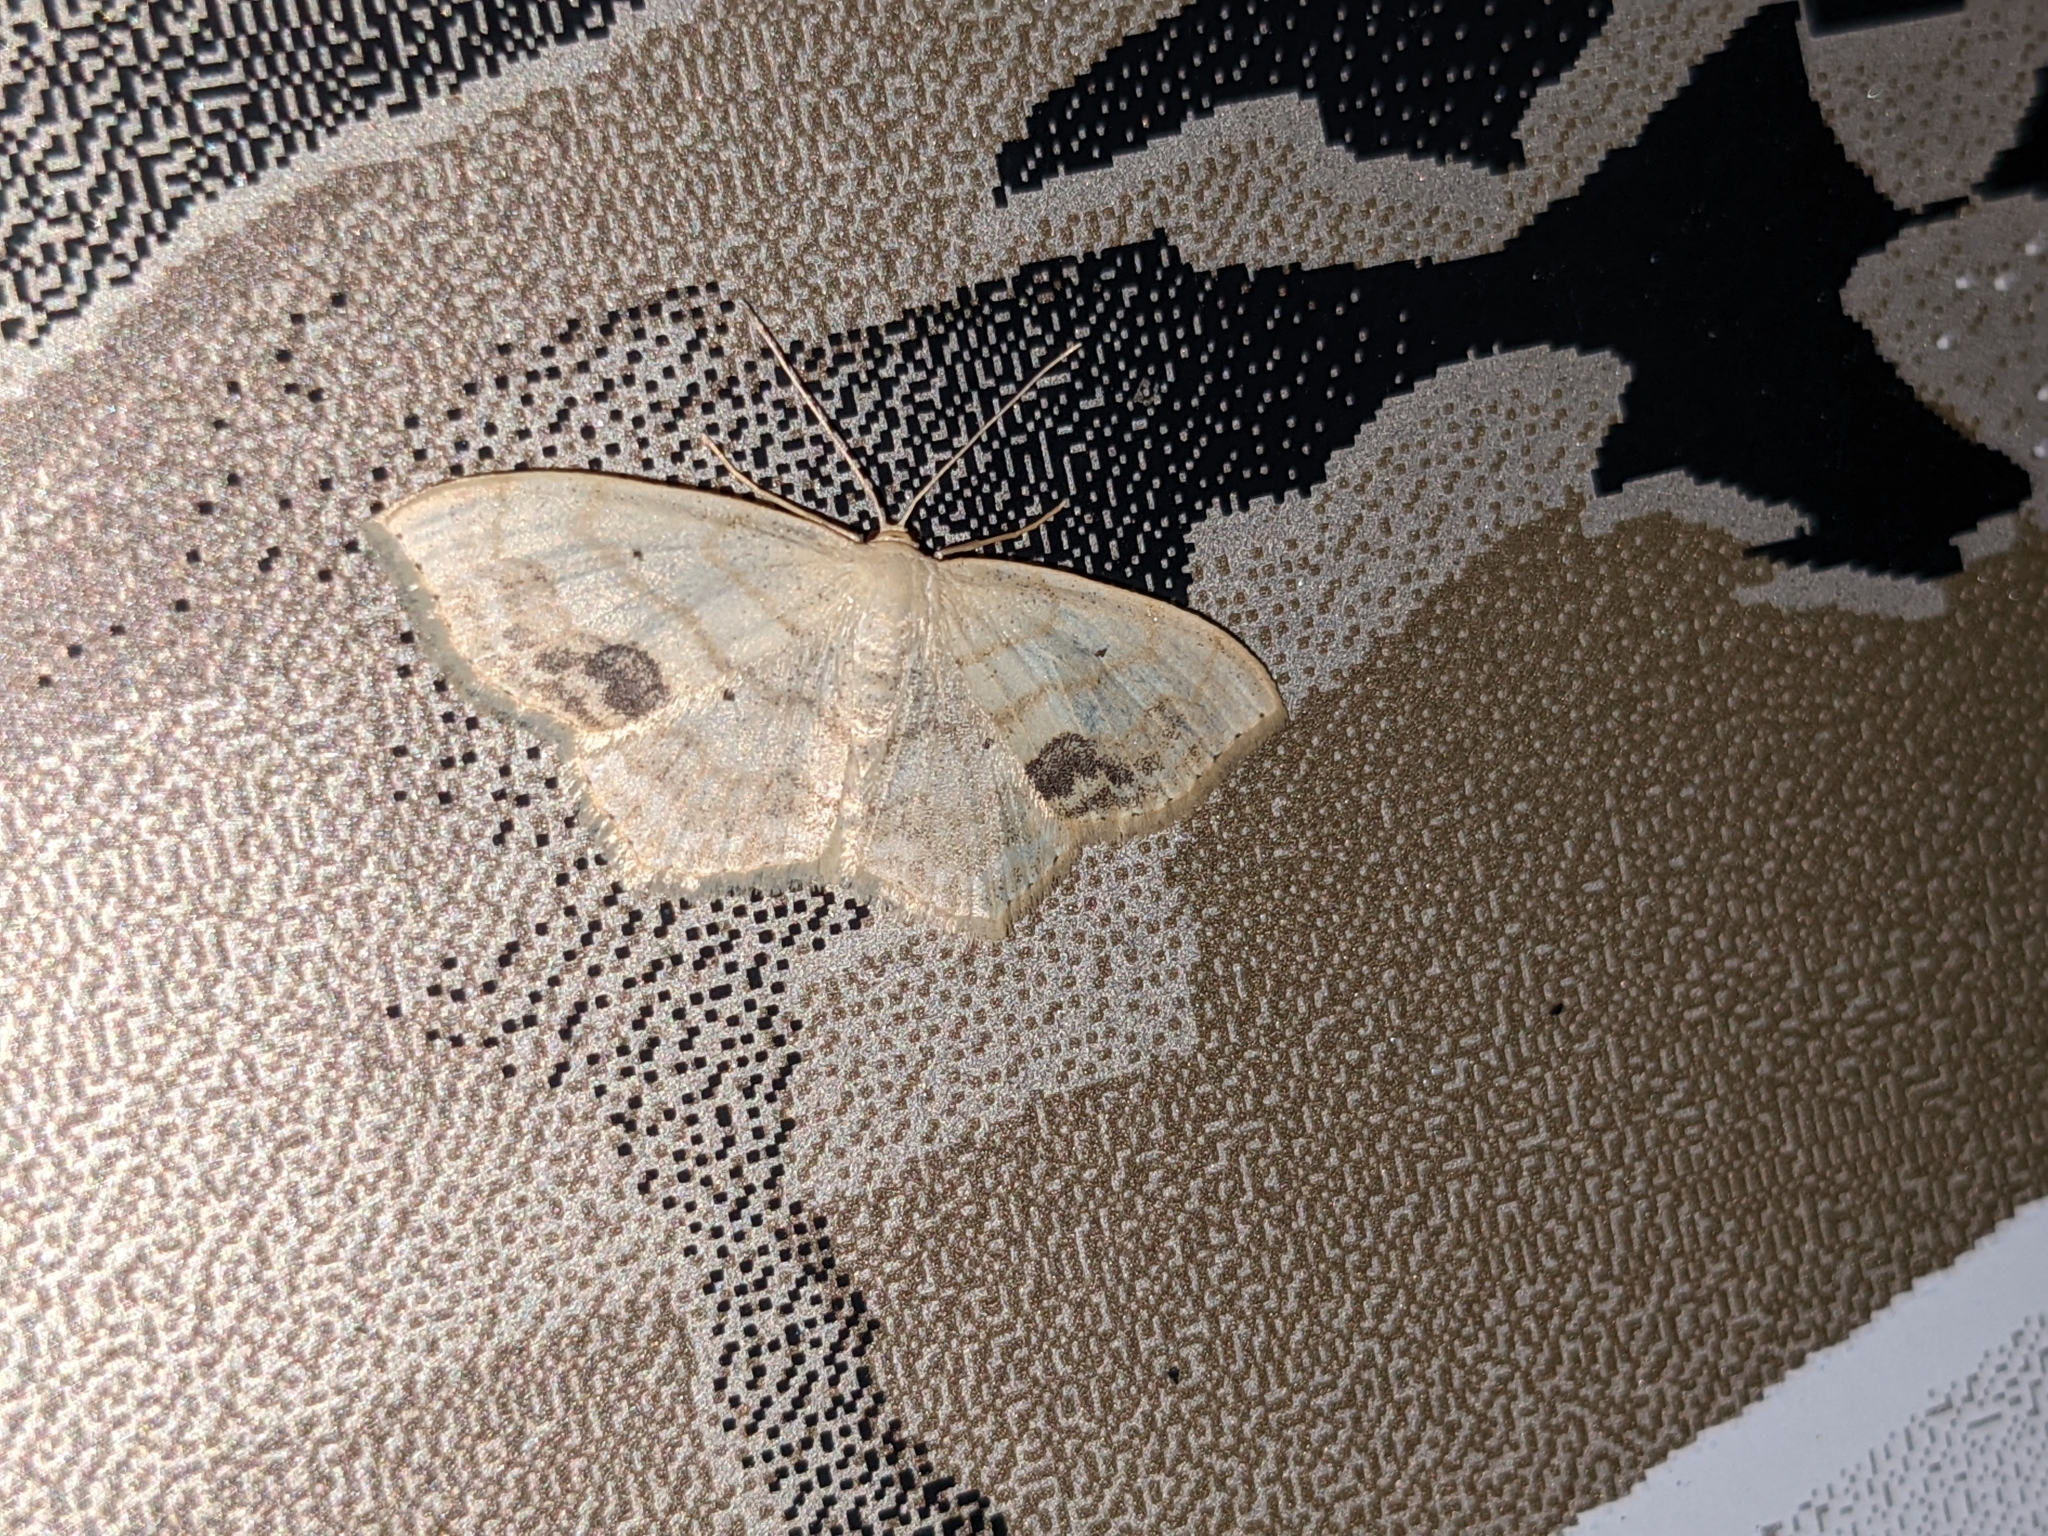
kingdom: Animalia
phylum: Arthropoda
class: Insecta
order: Lepidoptera
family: Geometridae
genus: Scopula
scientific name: Scopula limboundata
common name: Large lace border
